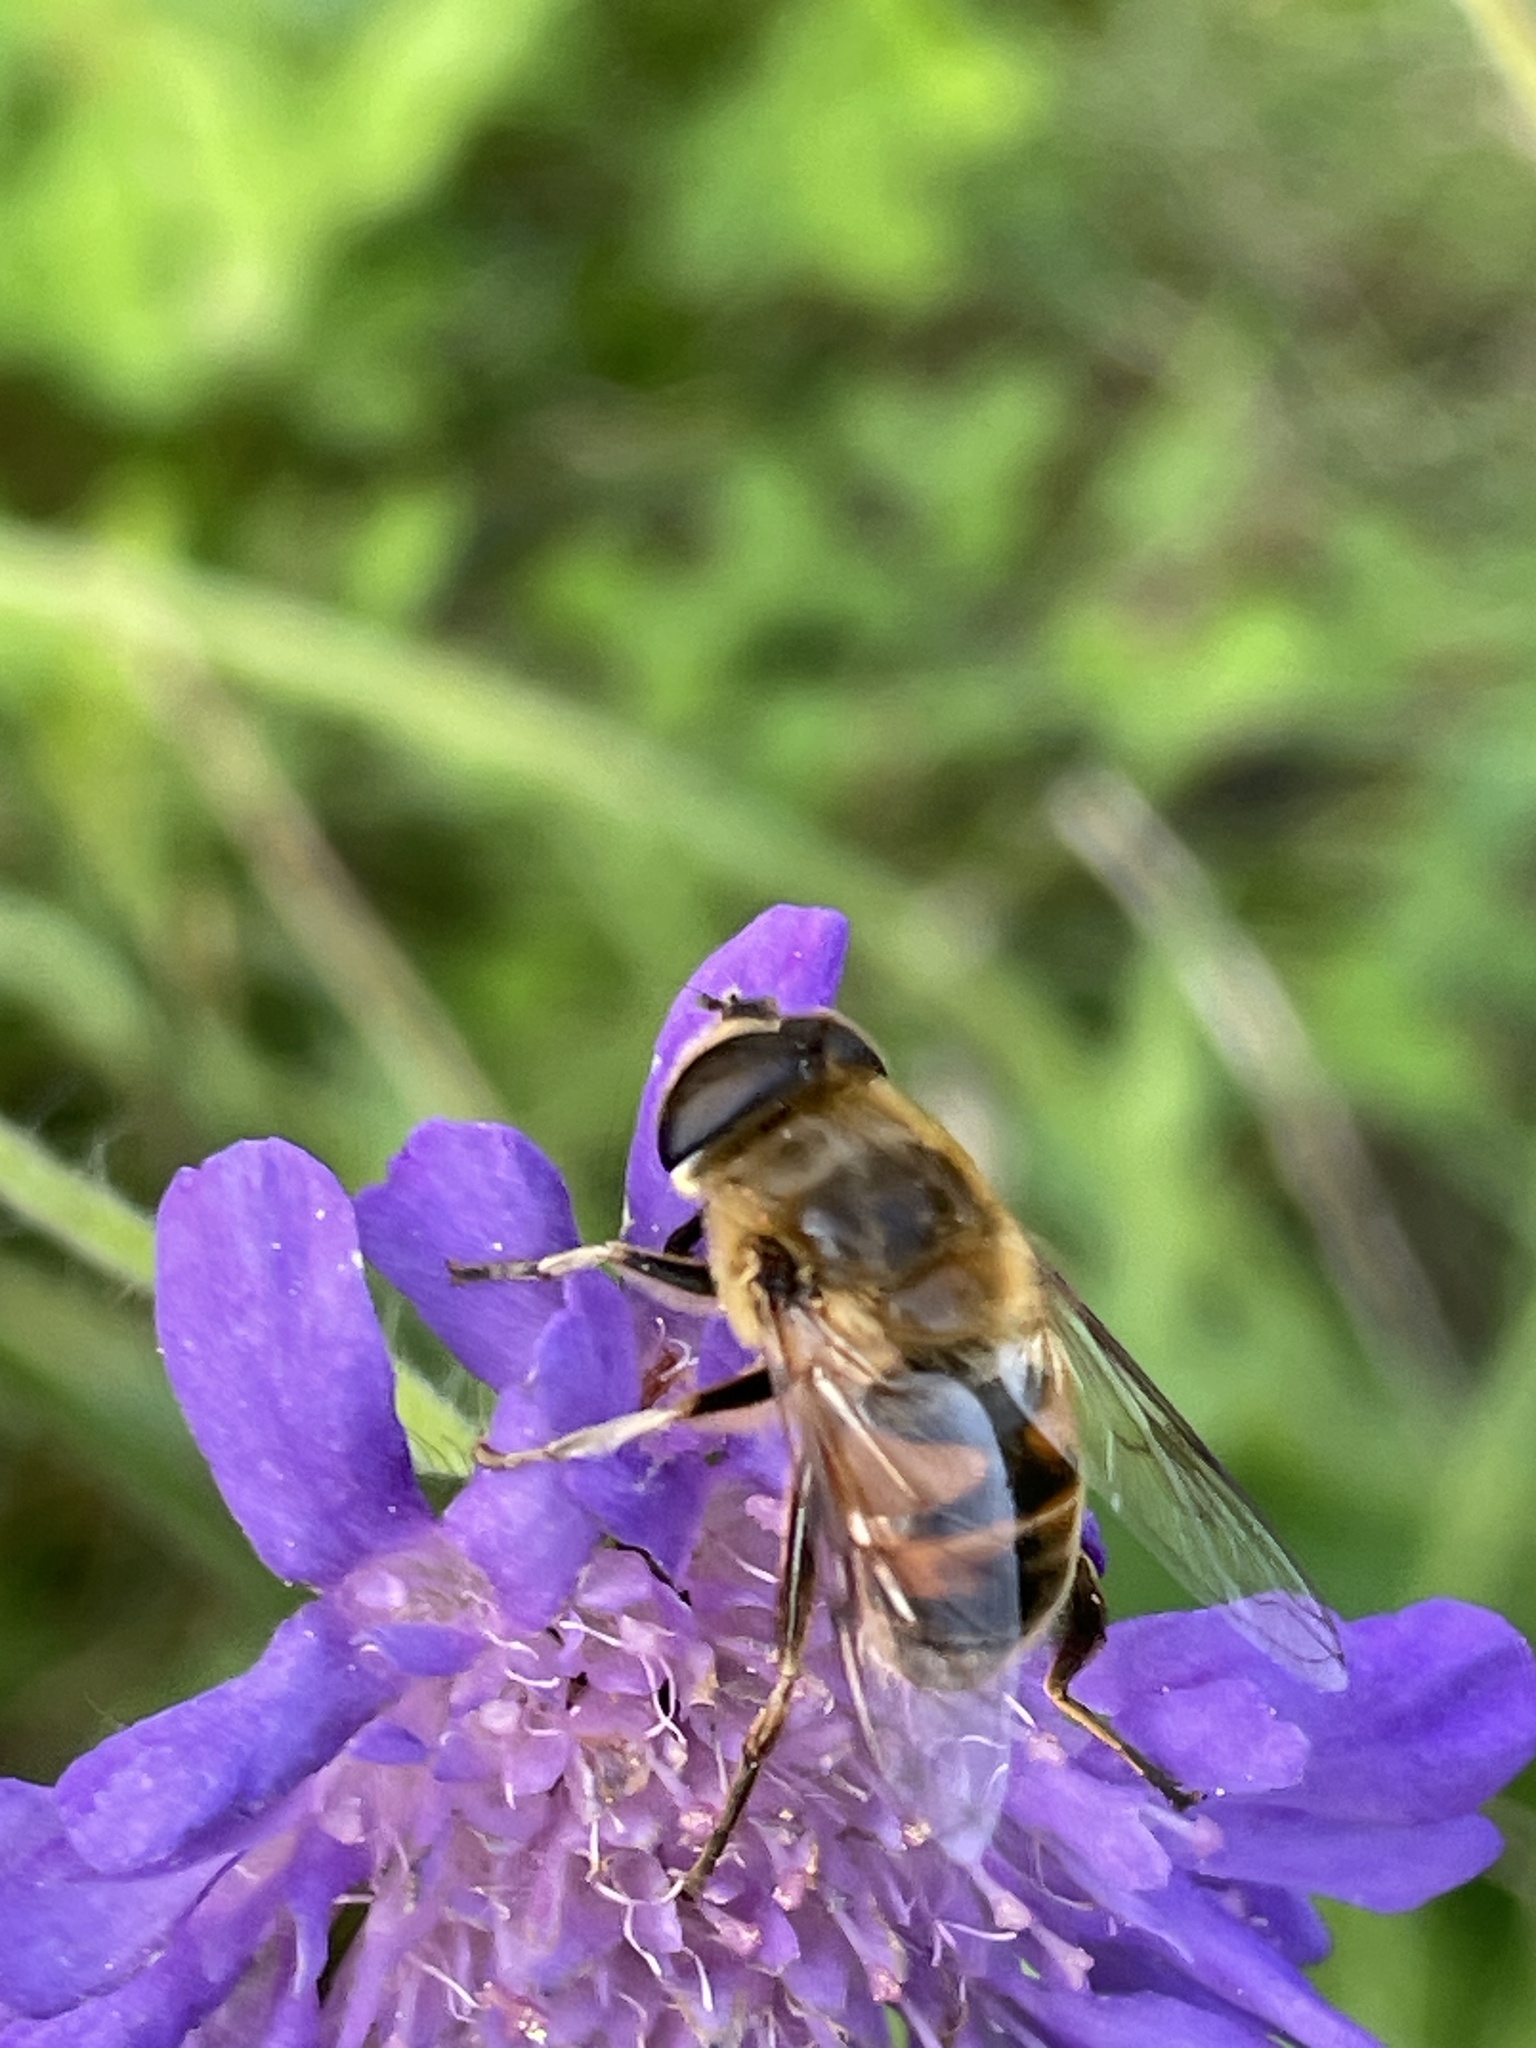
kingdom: Animalia
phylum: Arthropoda
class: Insecta
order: Diptera
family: Syrphidae
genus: Eristalis
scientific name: Eristalis tenax
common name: Drone fly
